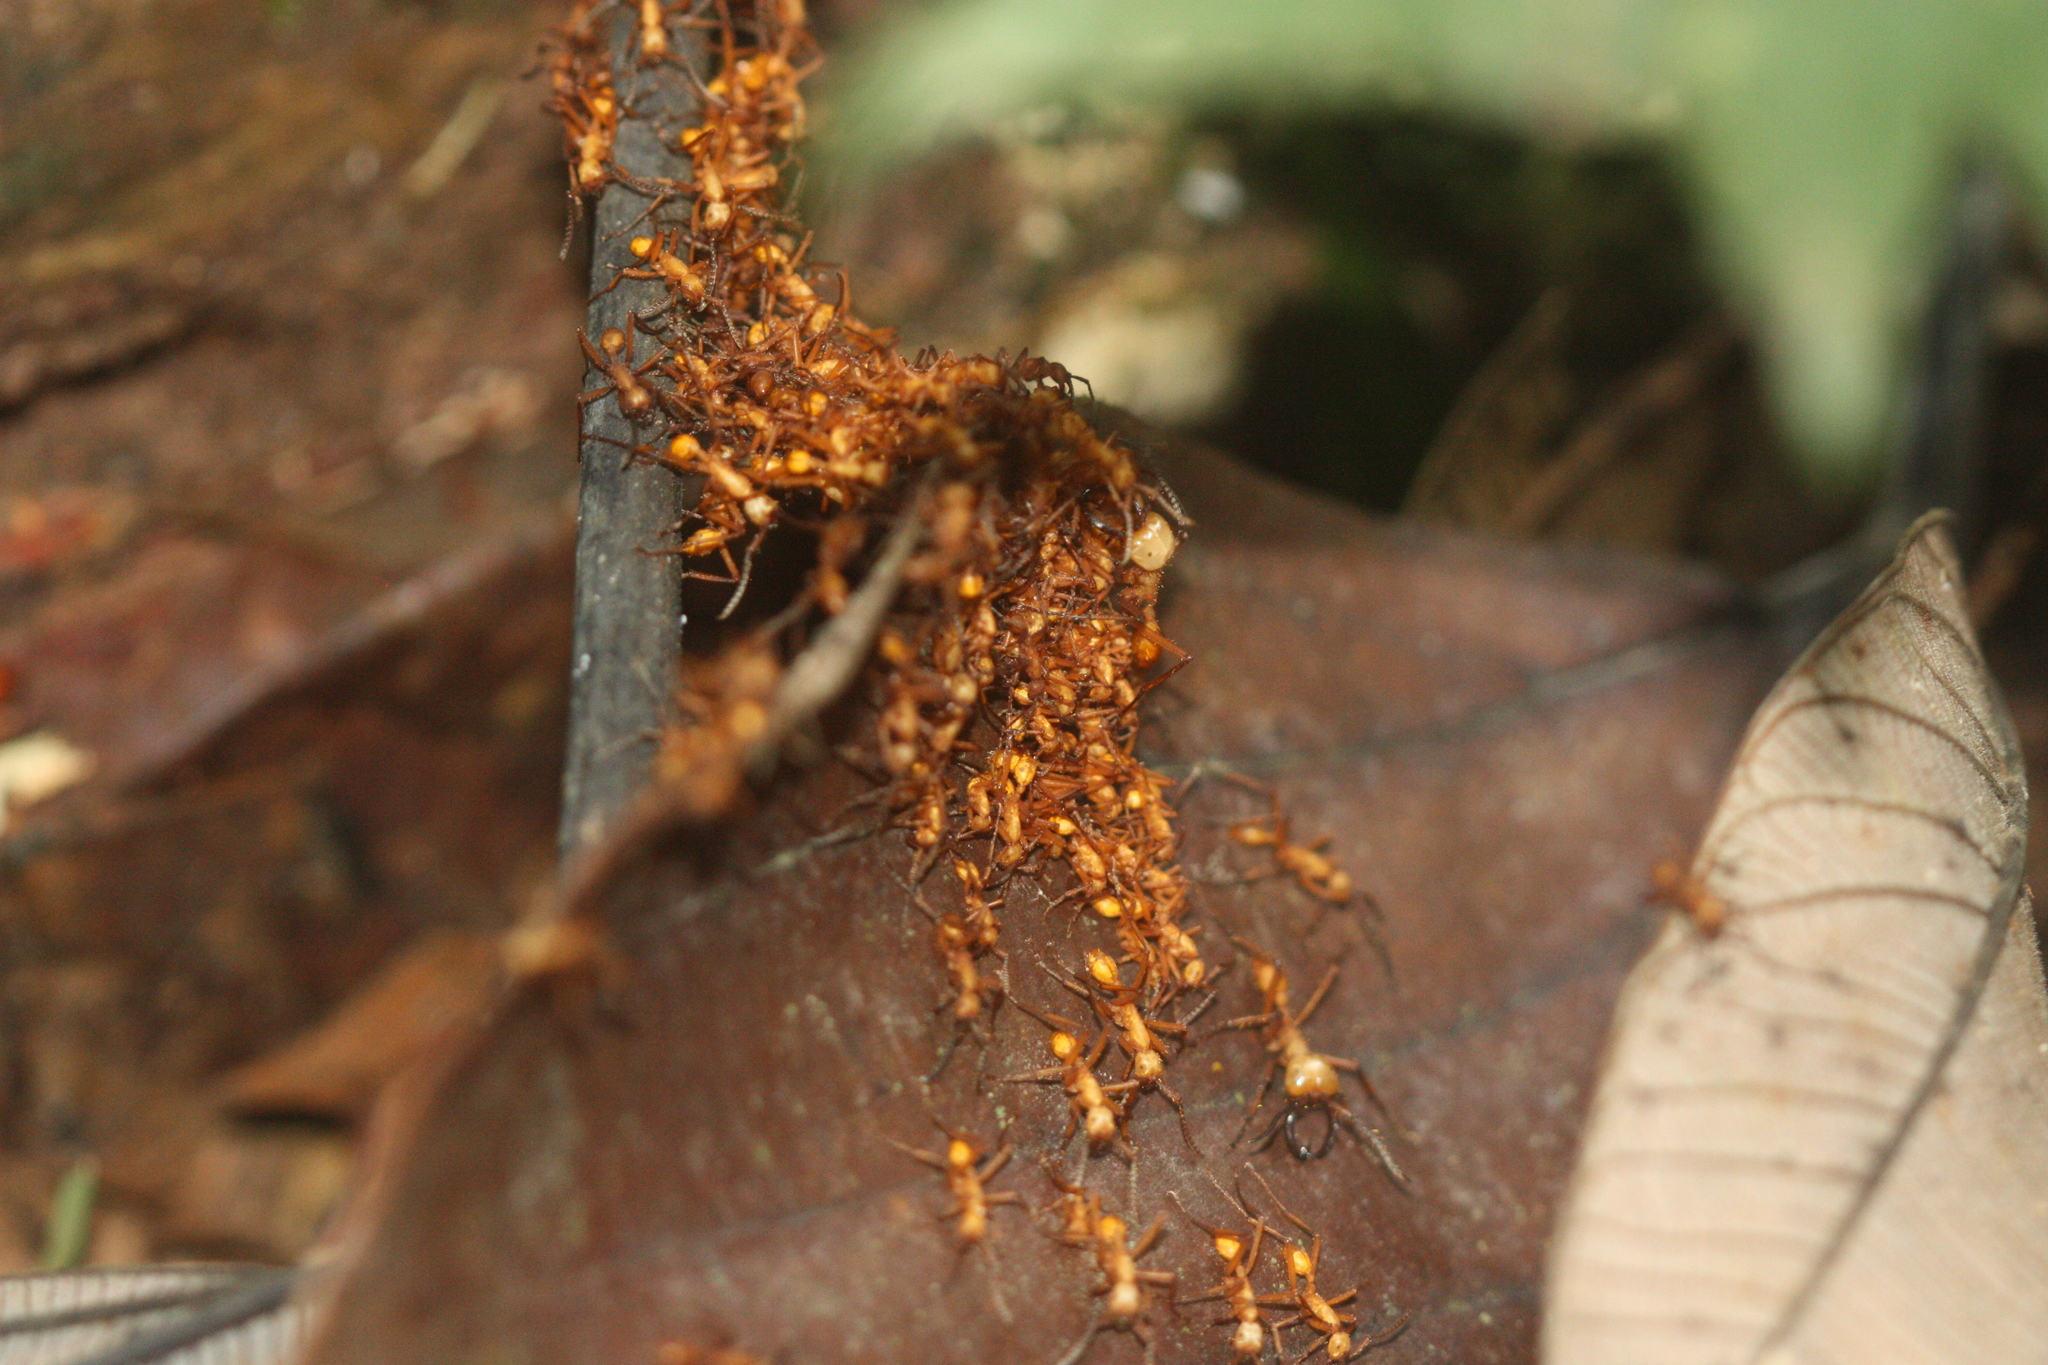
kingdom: Animalia
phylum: Arthropoda
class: Insecta
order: Hymenoptera
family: Formicidae
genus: Eciton
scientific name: Eciton hamatum
